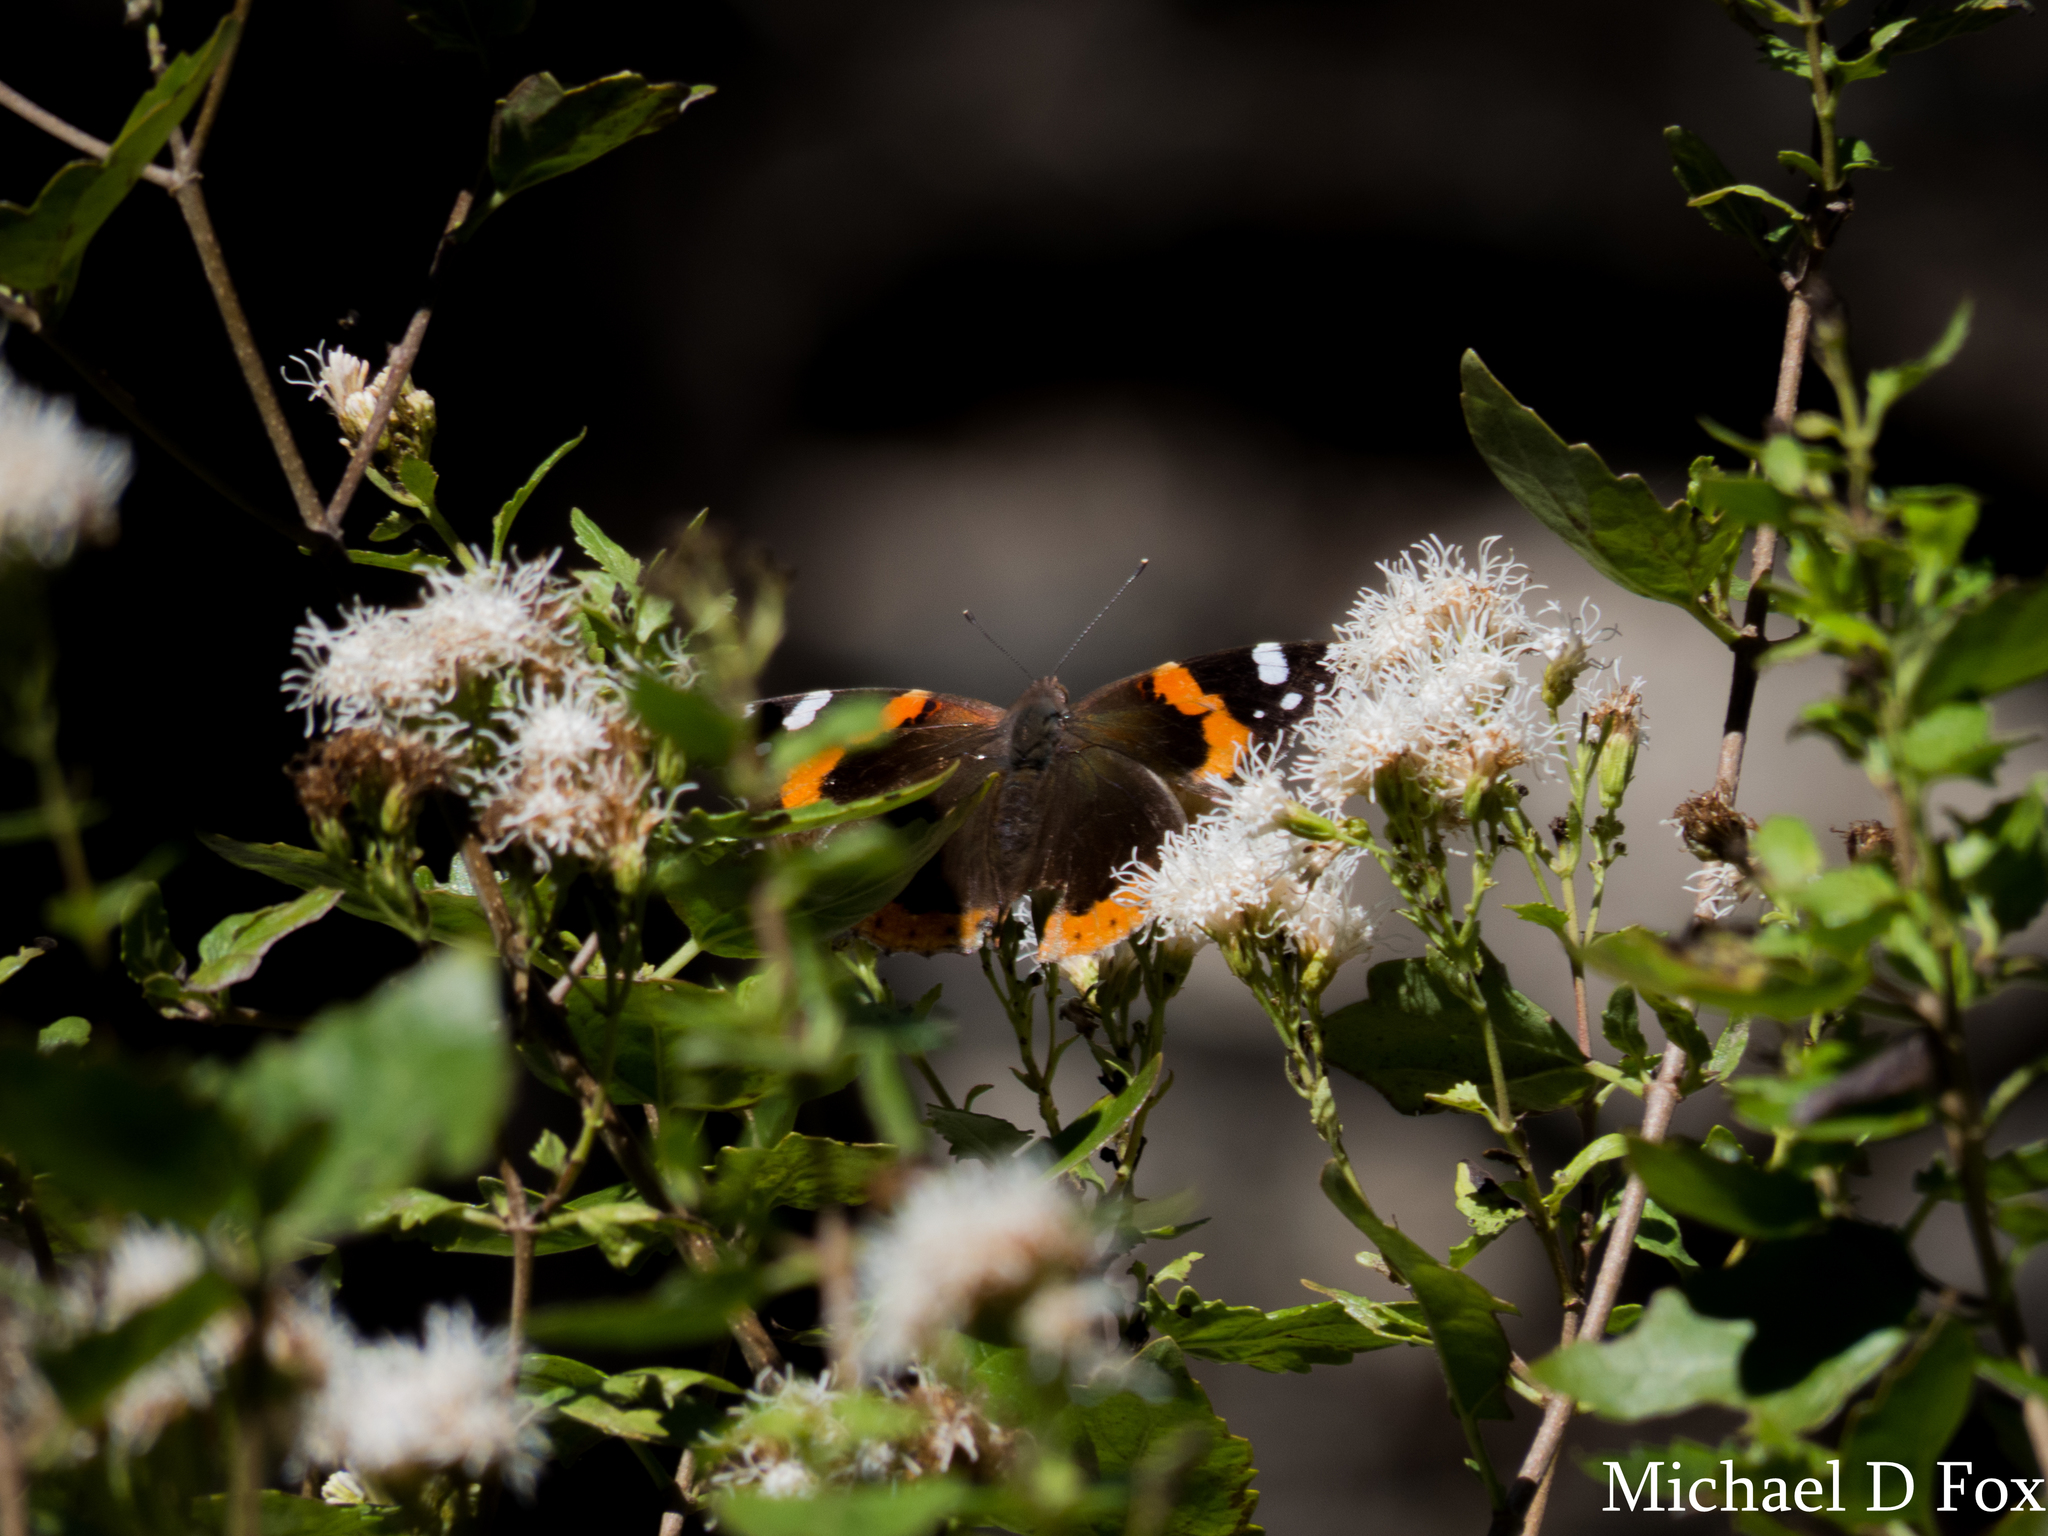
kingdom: Animalia
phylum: Arthropoda
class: Insecta
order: Lepidoptera
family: Nymphalidae
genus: Vanessa
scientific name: Vanessa atalanta
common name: Red admiral
